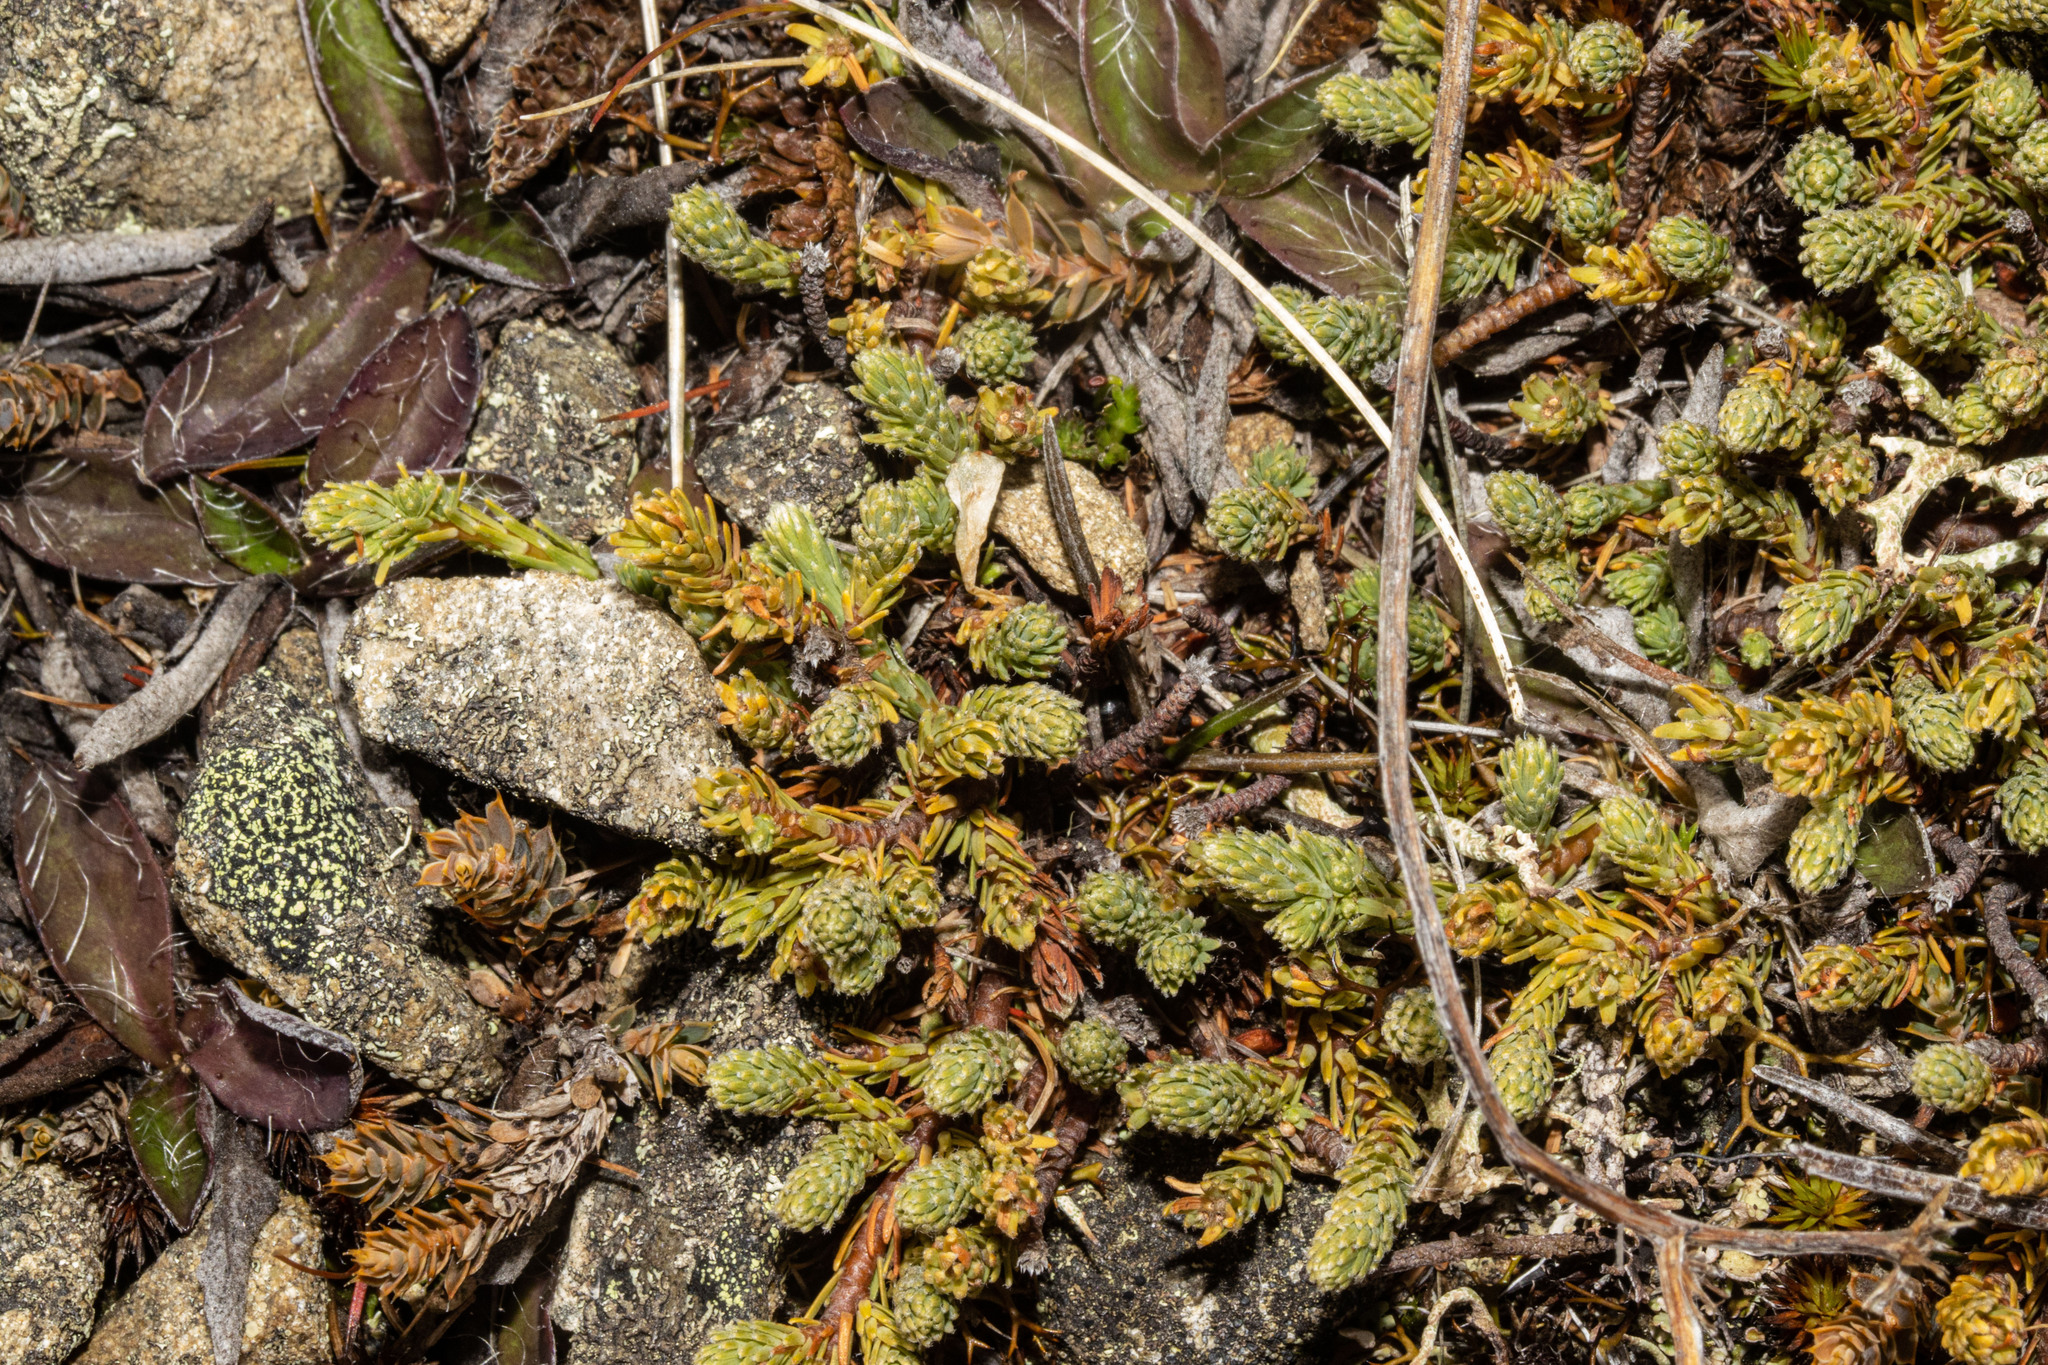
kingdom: Plantae
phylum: Tracheophyta
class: Magnoliopsida
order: Malvales
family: Thymelaeaceae
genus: Kelleria
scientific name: Kelleria dieffenbachii
